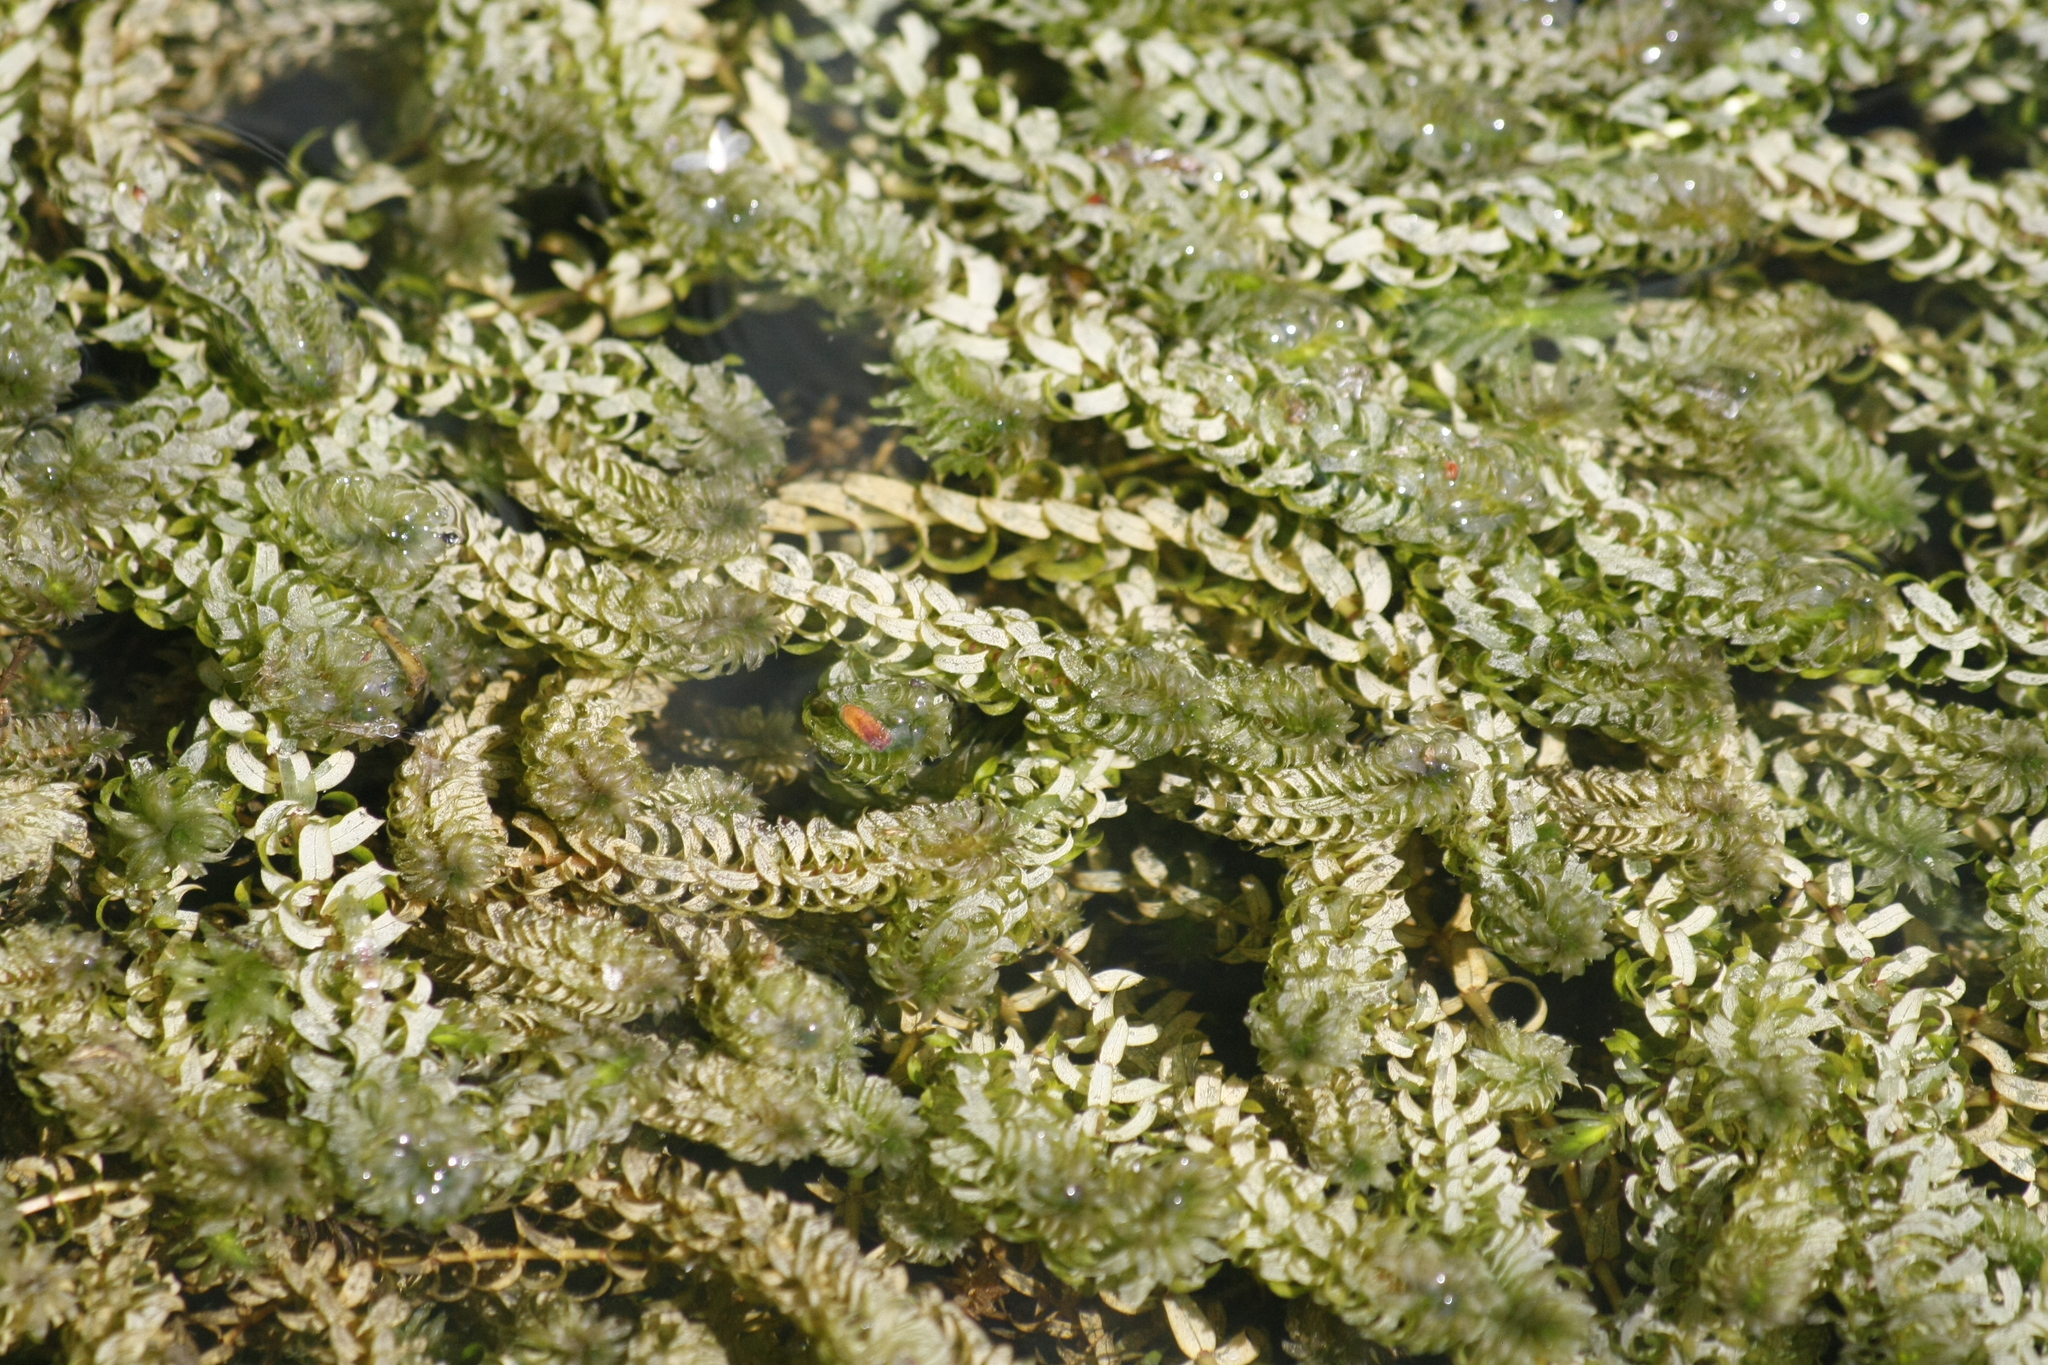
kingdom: Plantae
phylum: Tracheophyta
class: Liliopsida
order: Alismatales
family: Hydrocharitaceae
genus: Elodea
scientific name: Elodea canadensis
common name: Canadian waterweed
